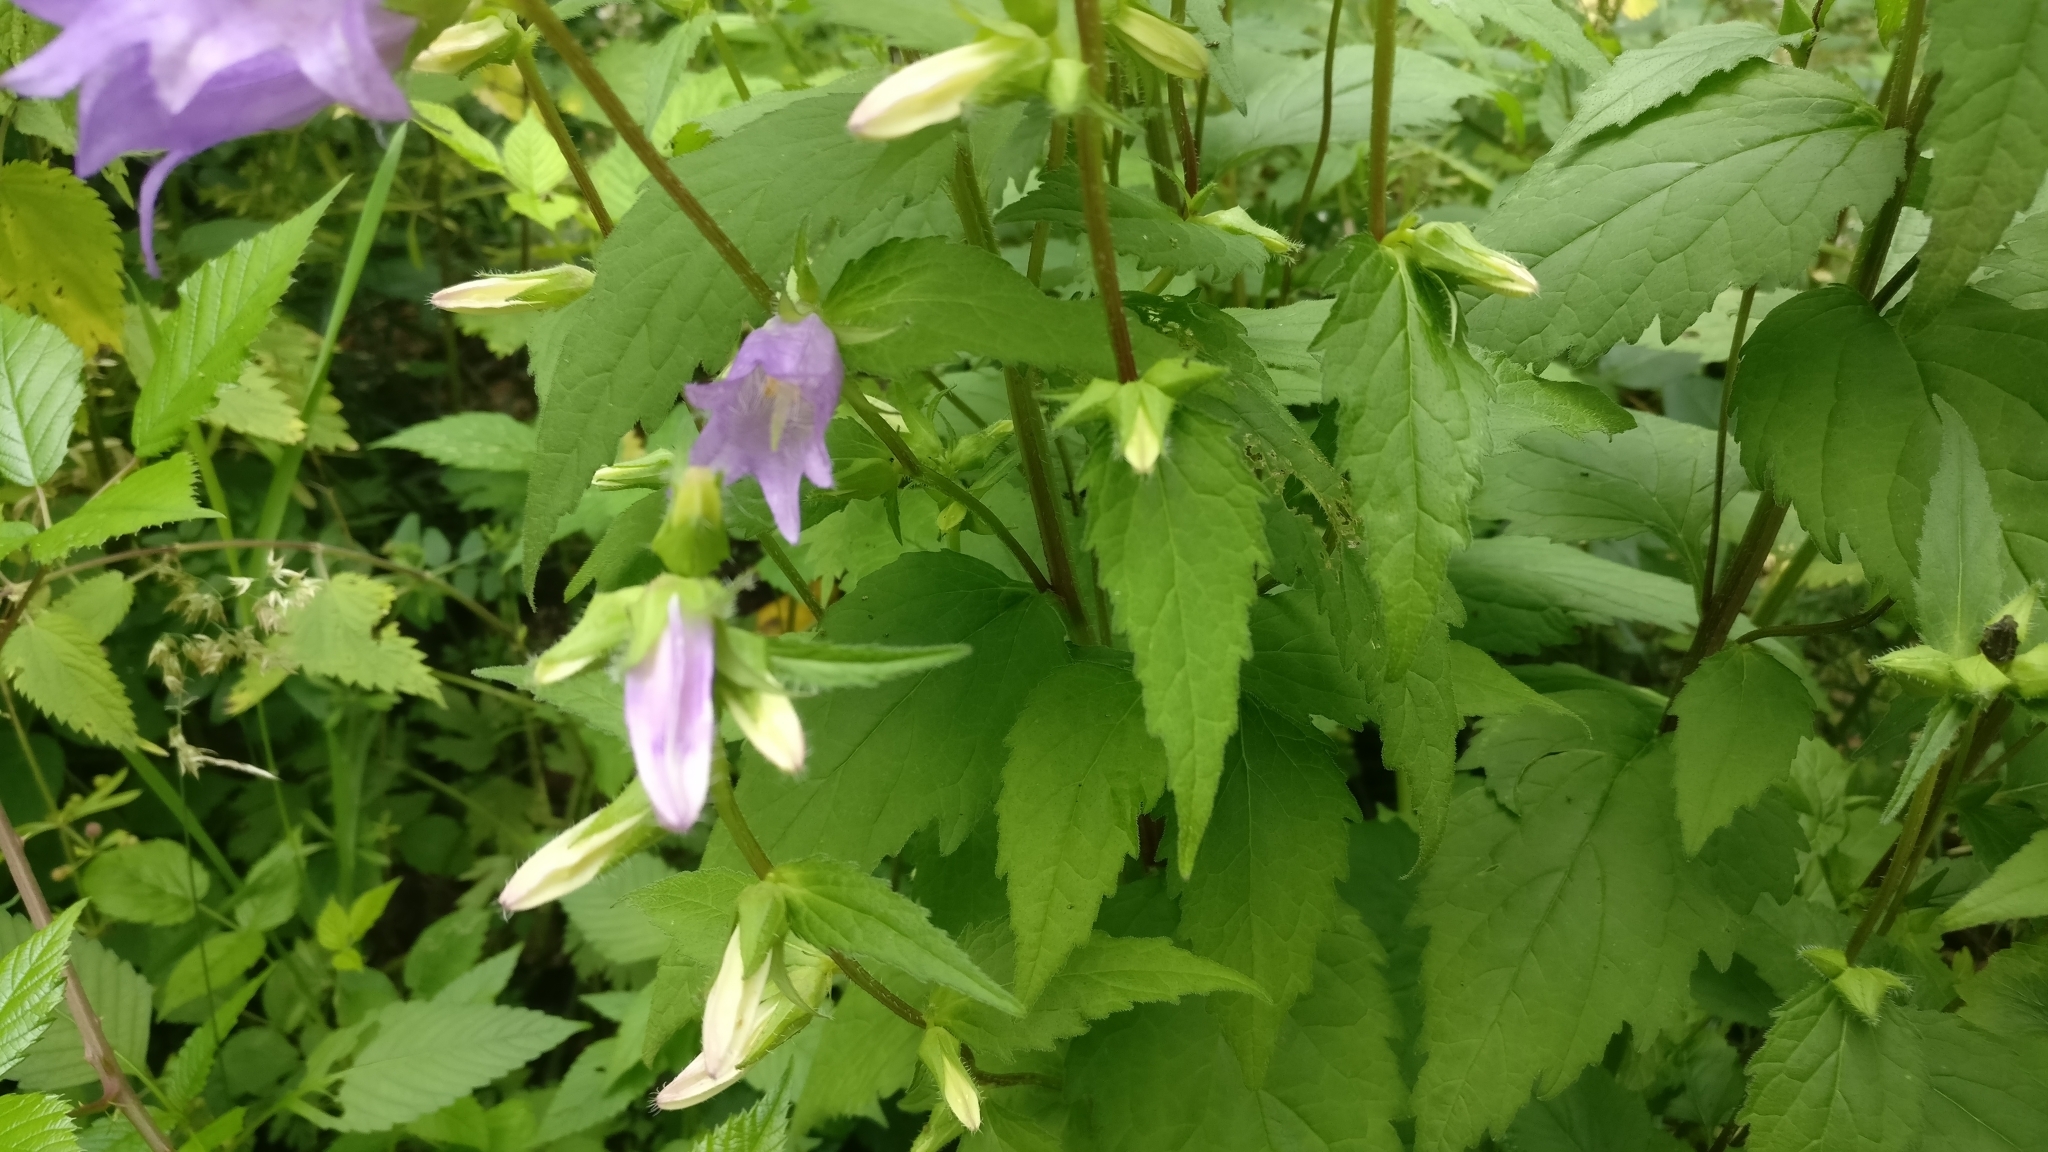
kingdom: Plantae
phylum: Tracheophyta
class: Magnoliopsida
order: Asterales
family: Campanulaceae
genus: Campanula
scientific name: Campanula trachelium
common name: Nettle-leaved bellflower
